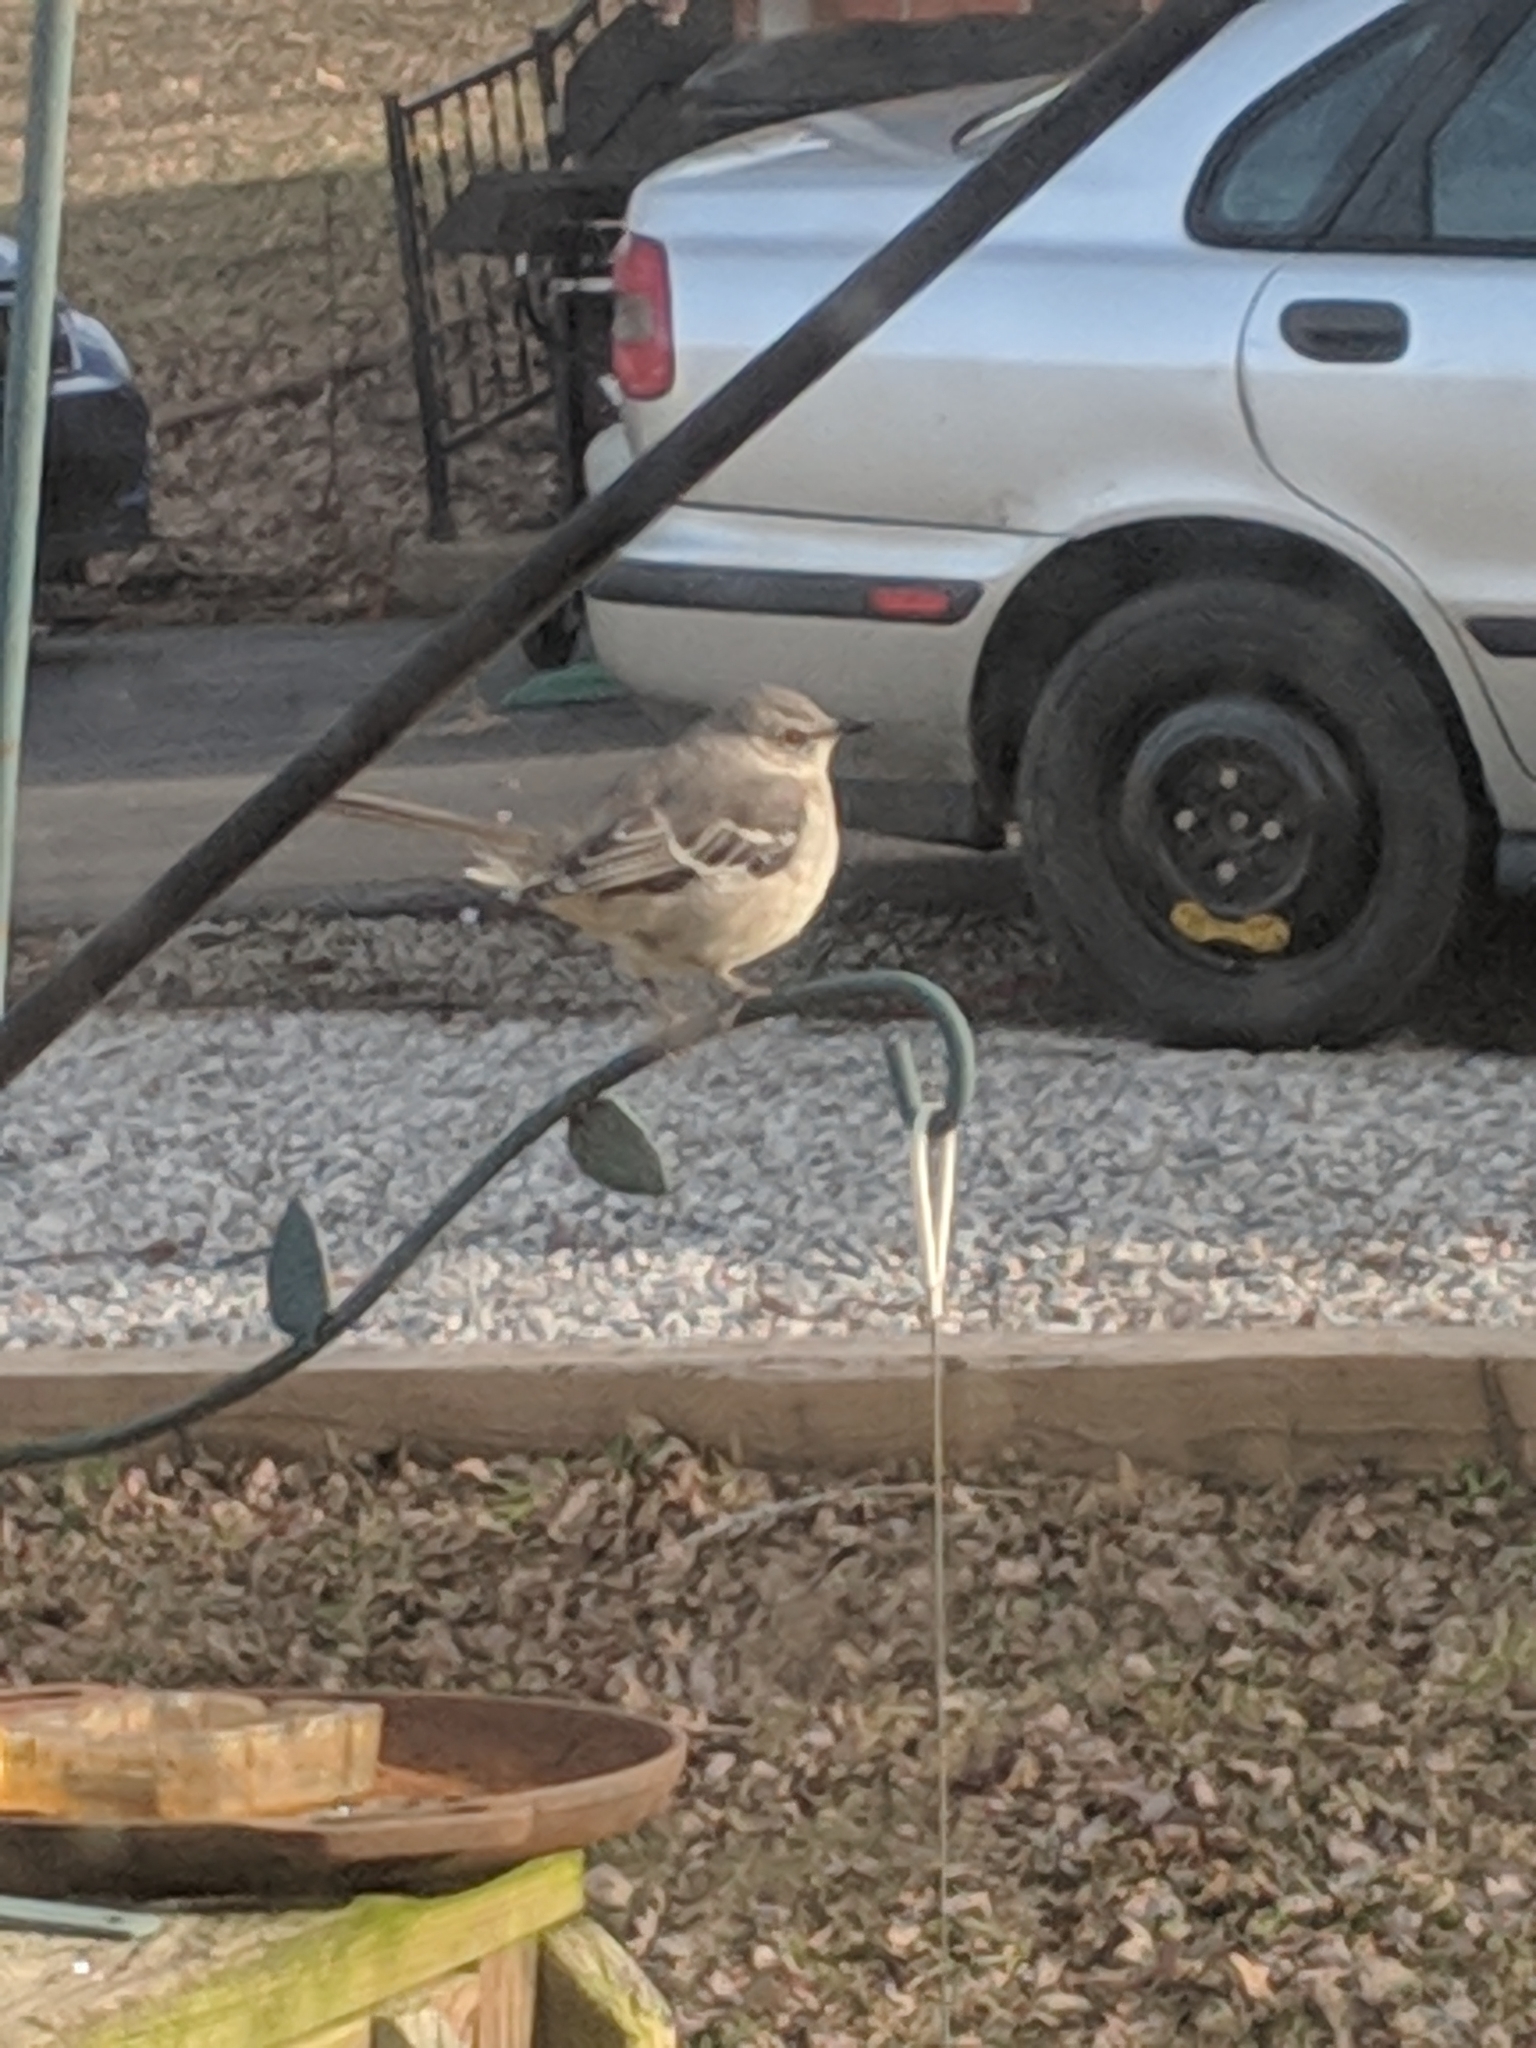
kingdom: Animalia
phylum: Chordata
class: Aves
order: Passeriformes
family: Mimidae
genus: Mimus
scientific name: Mimus polyglottos
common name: Northern mockingbird
